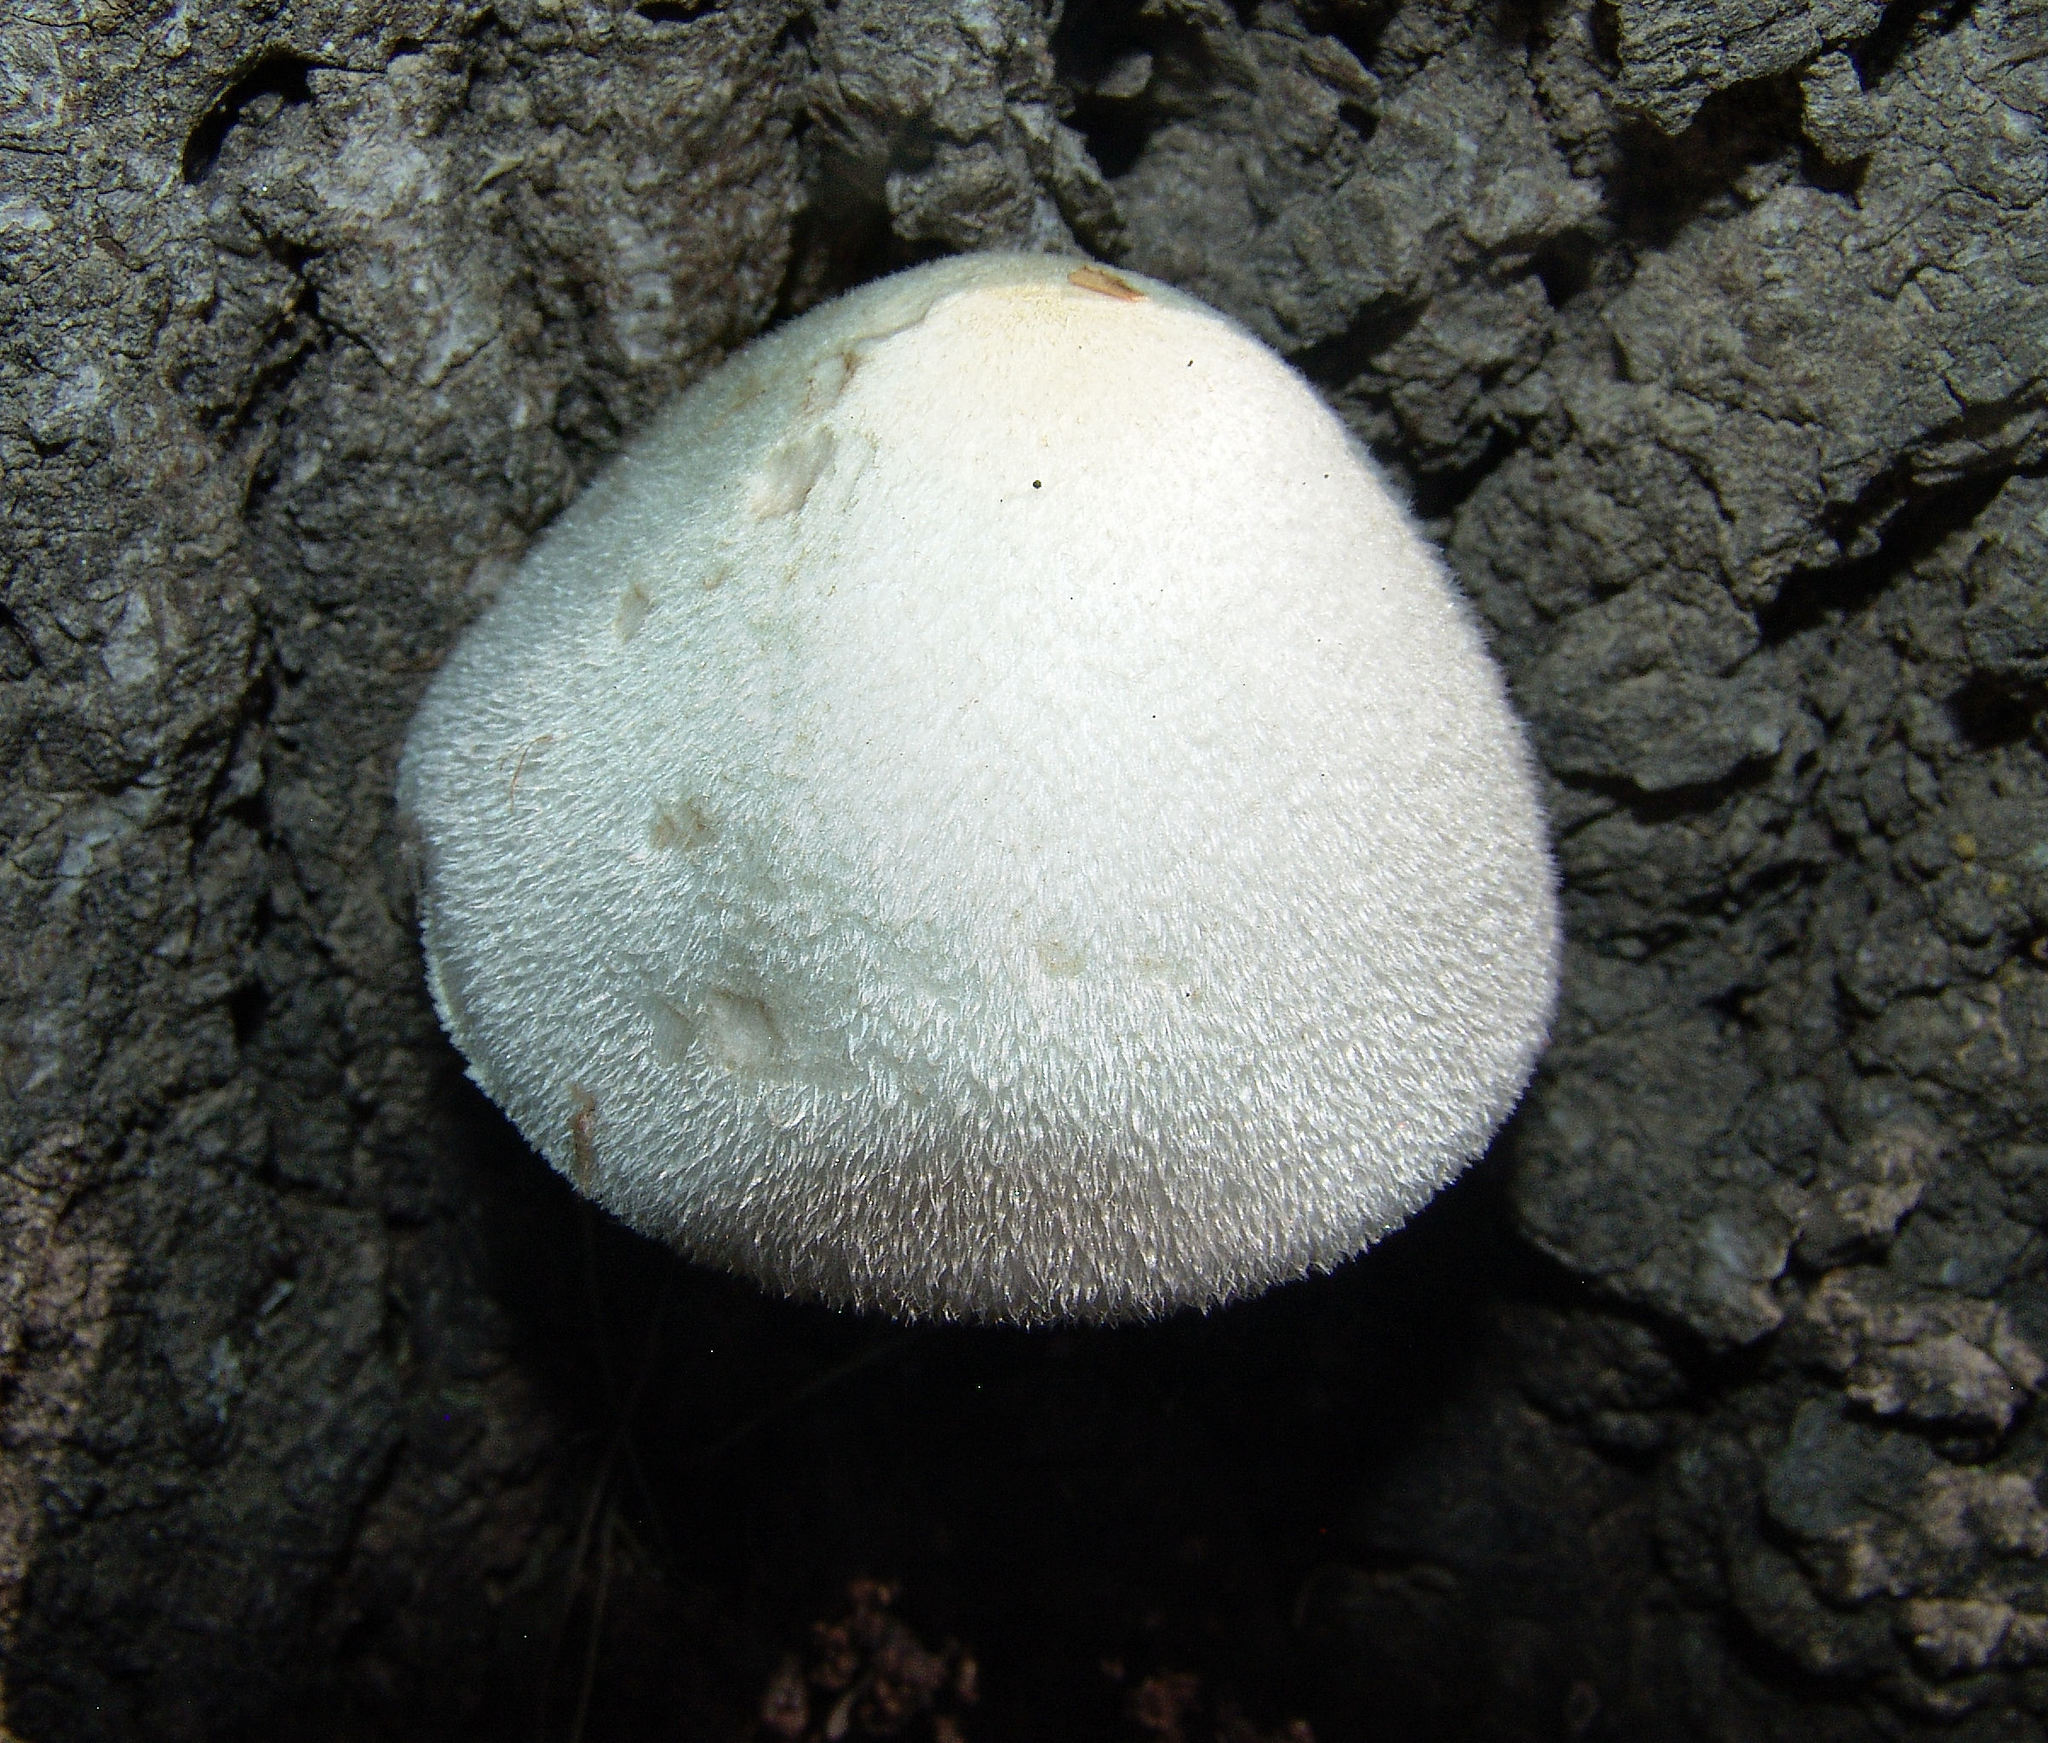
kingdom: Fungi
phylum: Basidiomycota
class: Agaricomycetes
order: Agaricales
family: Pluteaceae
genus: Volvariella
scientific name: Volvariella bombycina
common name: Silky rosegill
